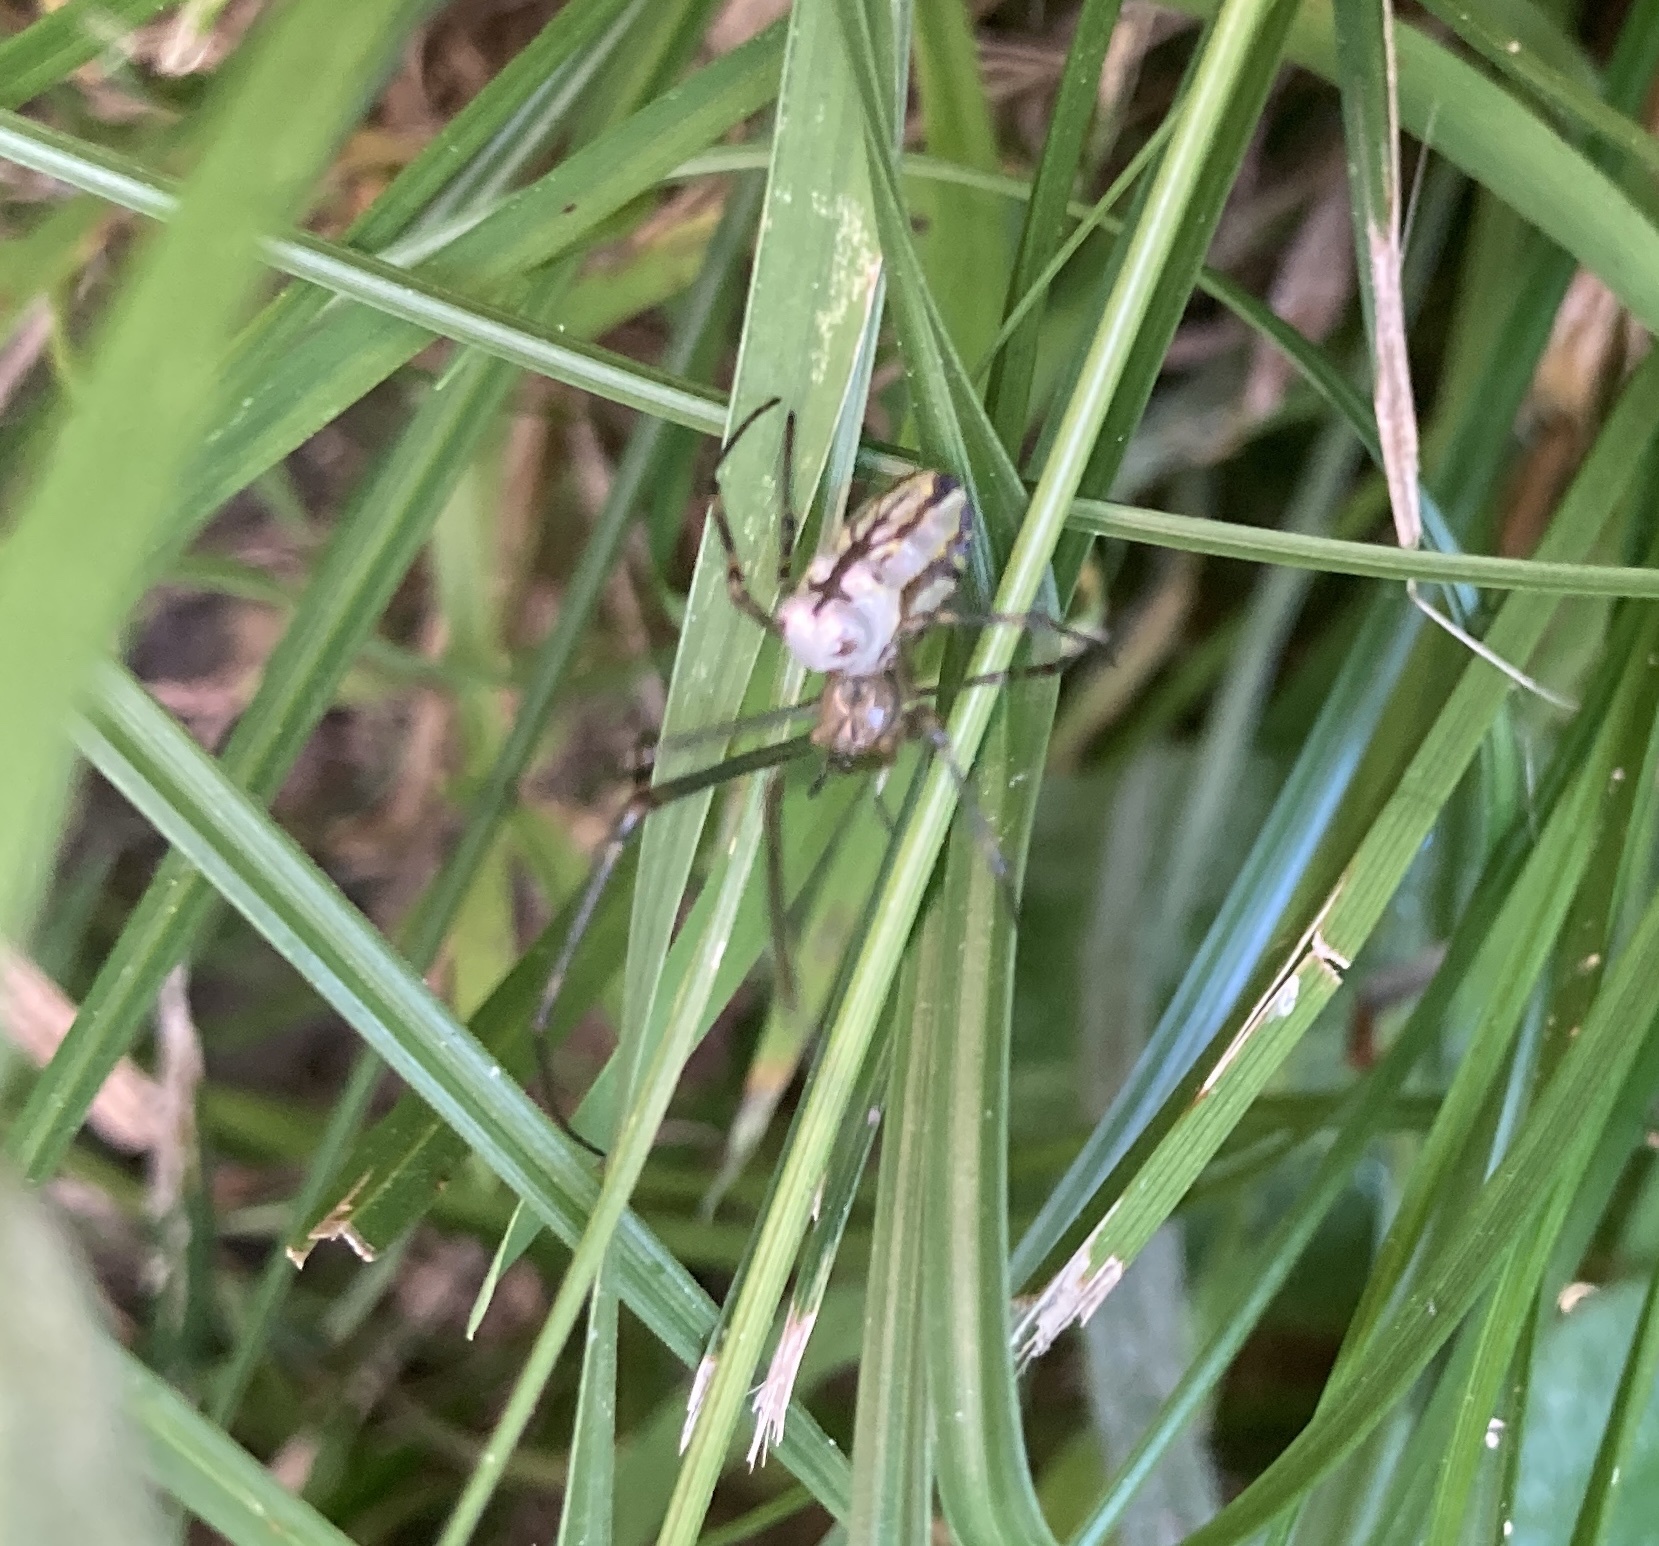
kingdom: Animalia
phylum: Arthropoda
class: Arachnida
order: Araneae
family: Tetragnathidae
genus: Leucauge
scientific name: Leucauge dromedaria
